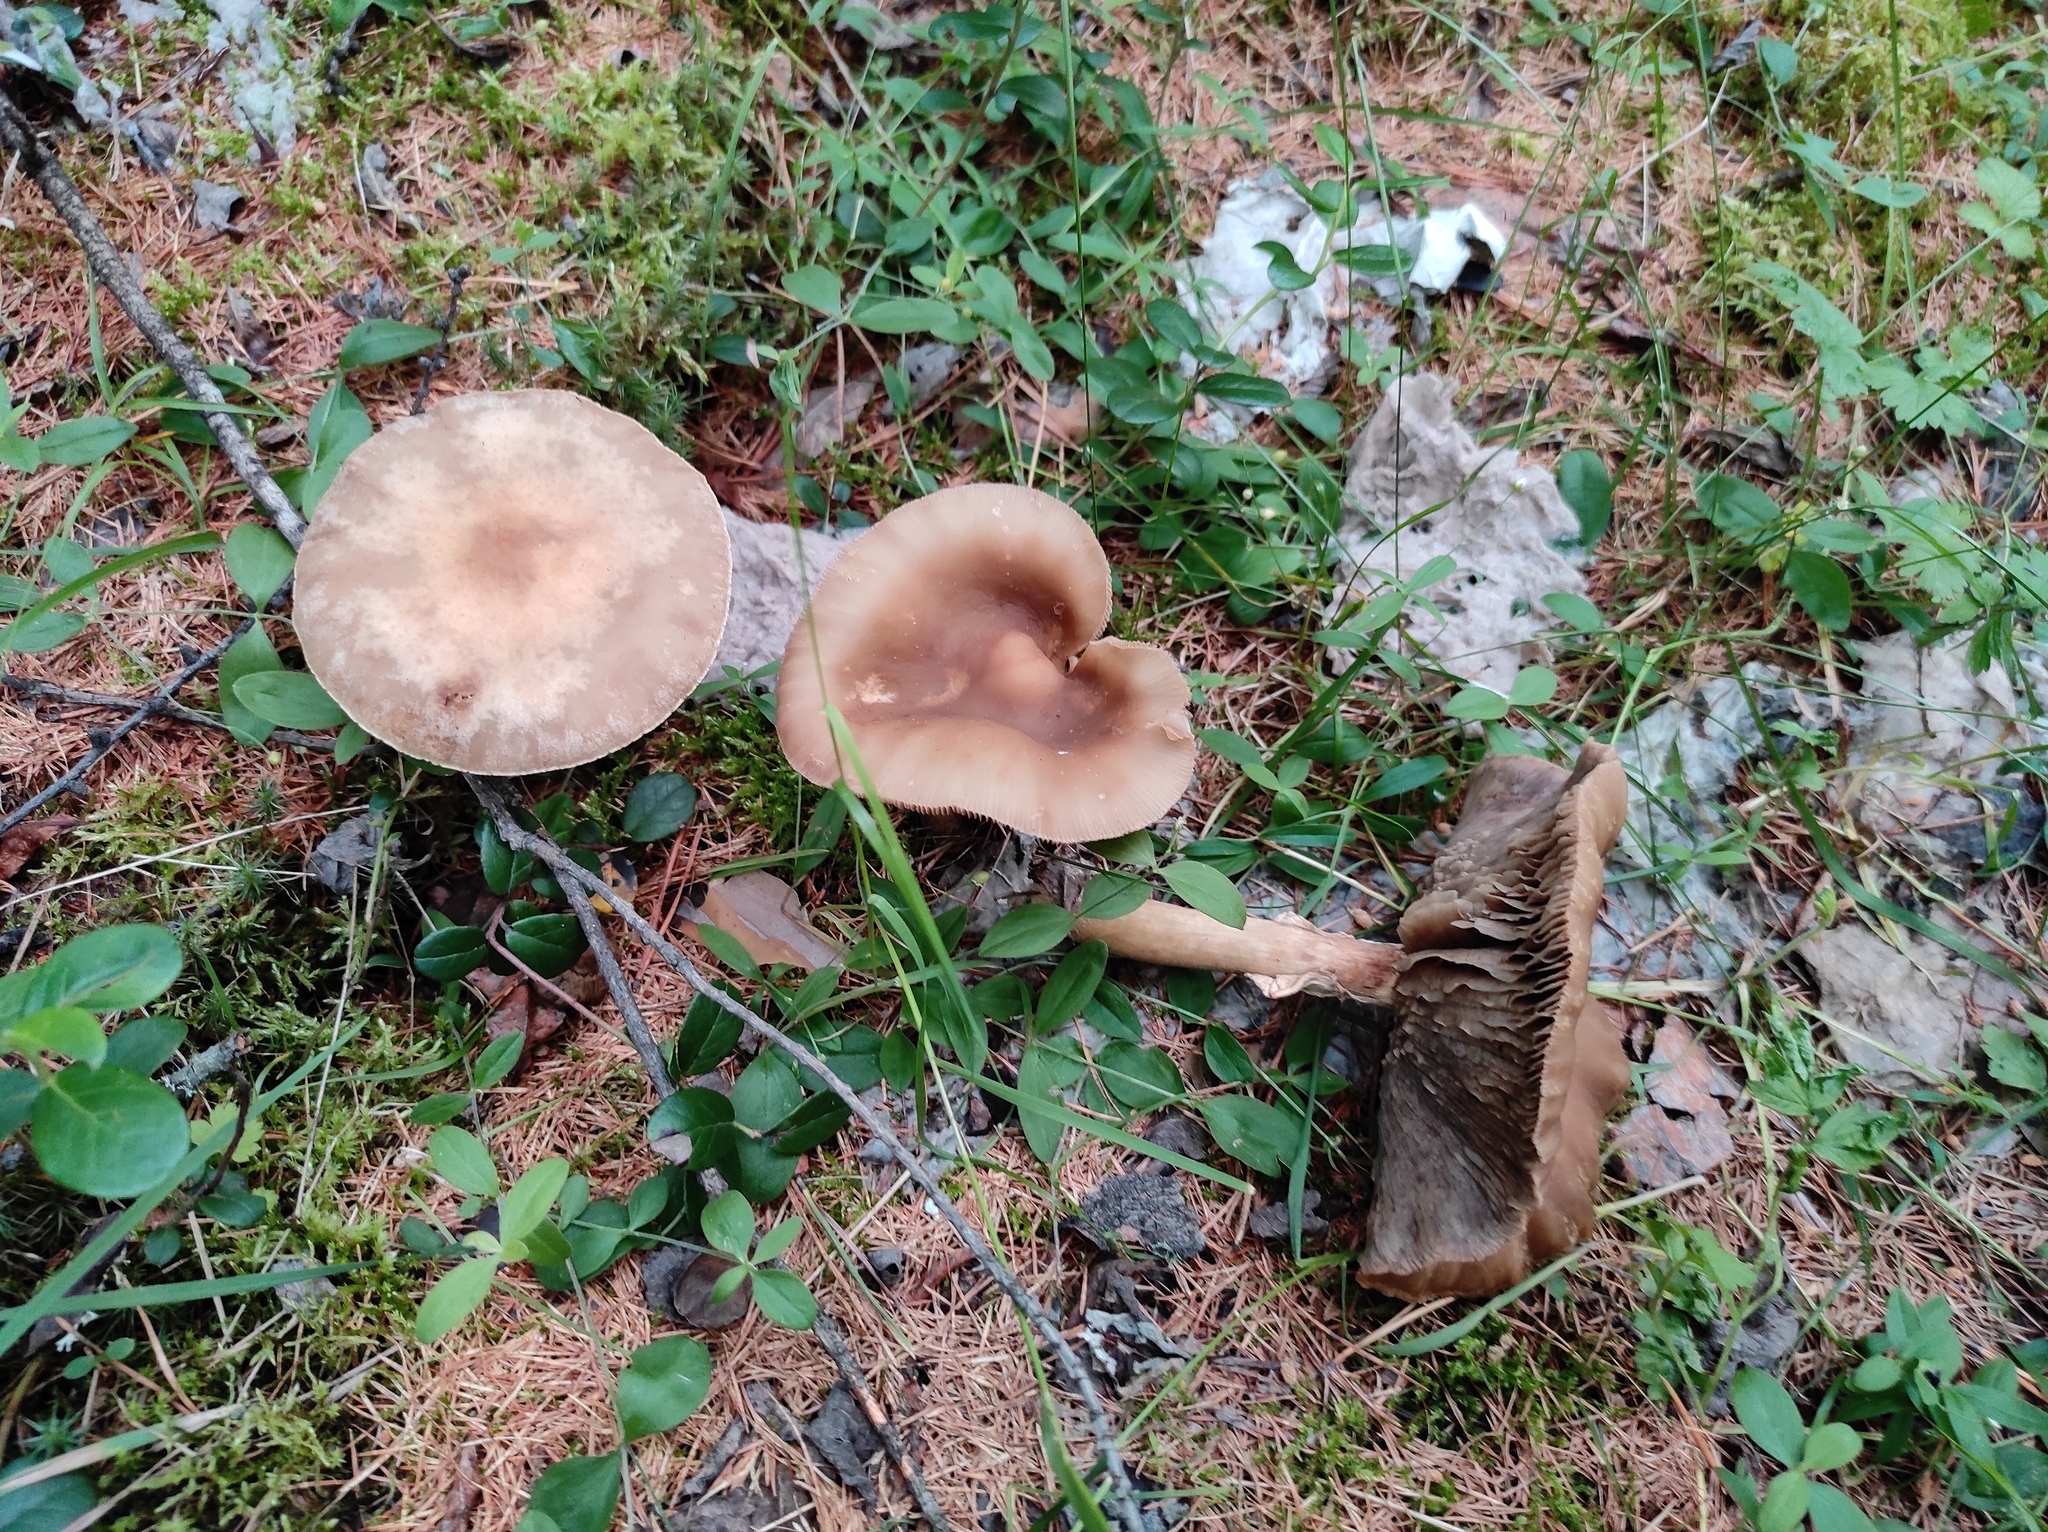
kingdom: Plantae
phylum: Tracheophyta
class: Magnoliopsida
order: Ericales
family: Ericaceae
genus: Vaccinium
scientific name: Vaccinium vitis-idaea
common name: Cowberry
